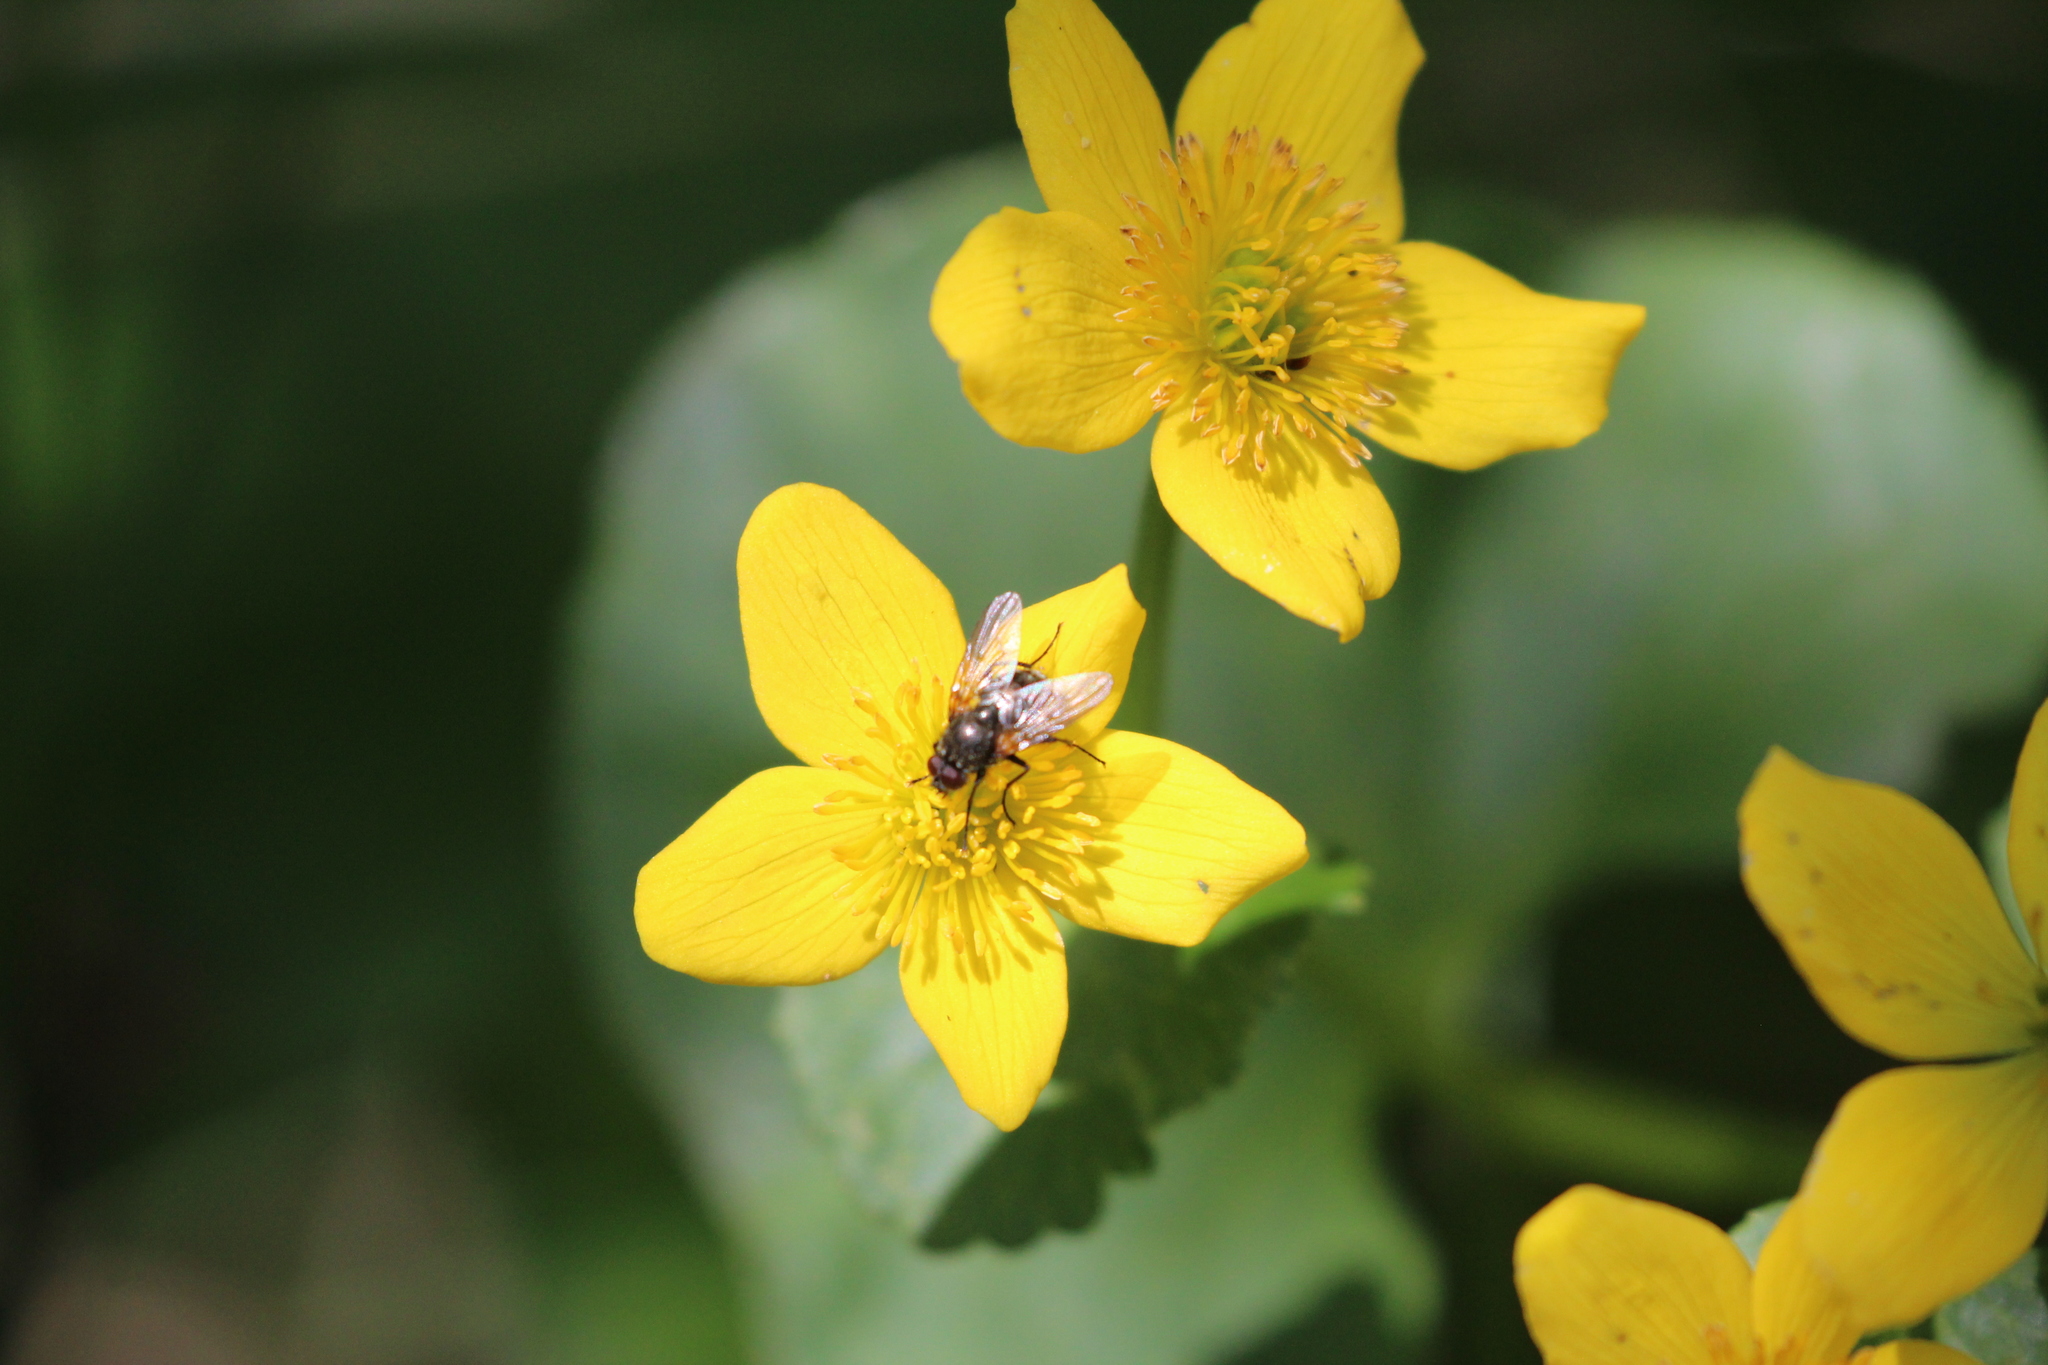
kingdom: Plantae
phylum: Tracheophyta
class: Magnoliopsida
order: Ranunculales
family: Ranunculaceae
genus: Caltha
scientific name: Caltha palustris
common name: Marsh marigold
